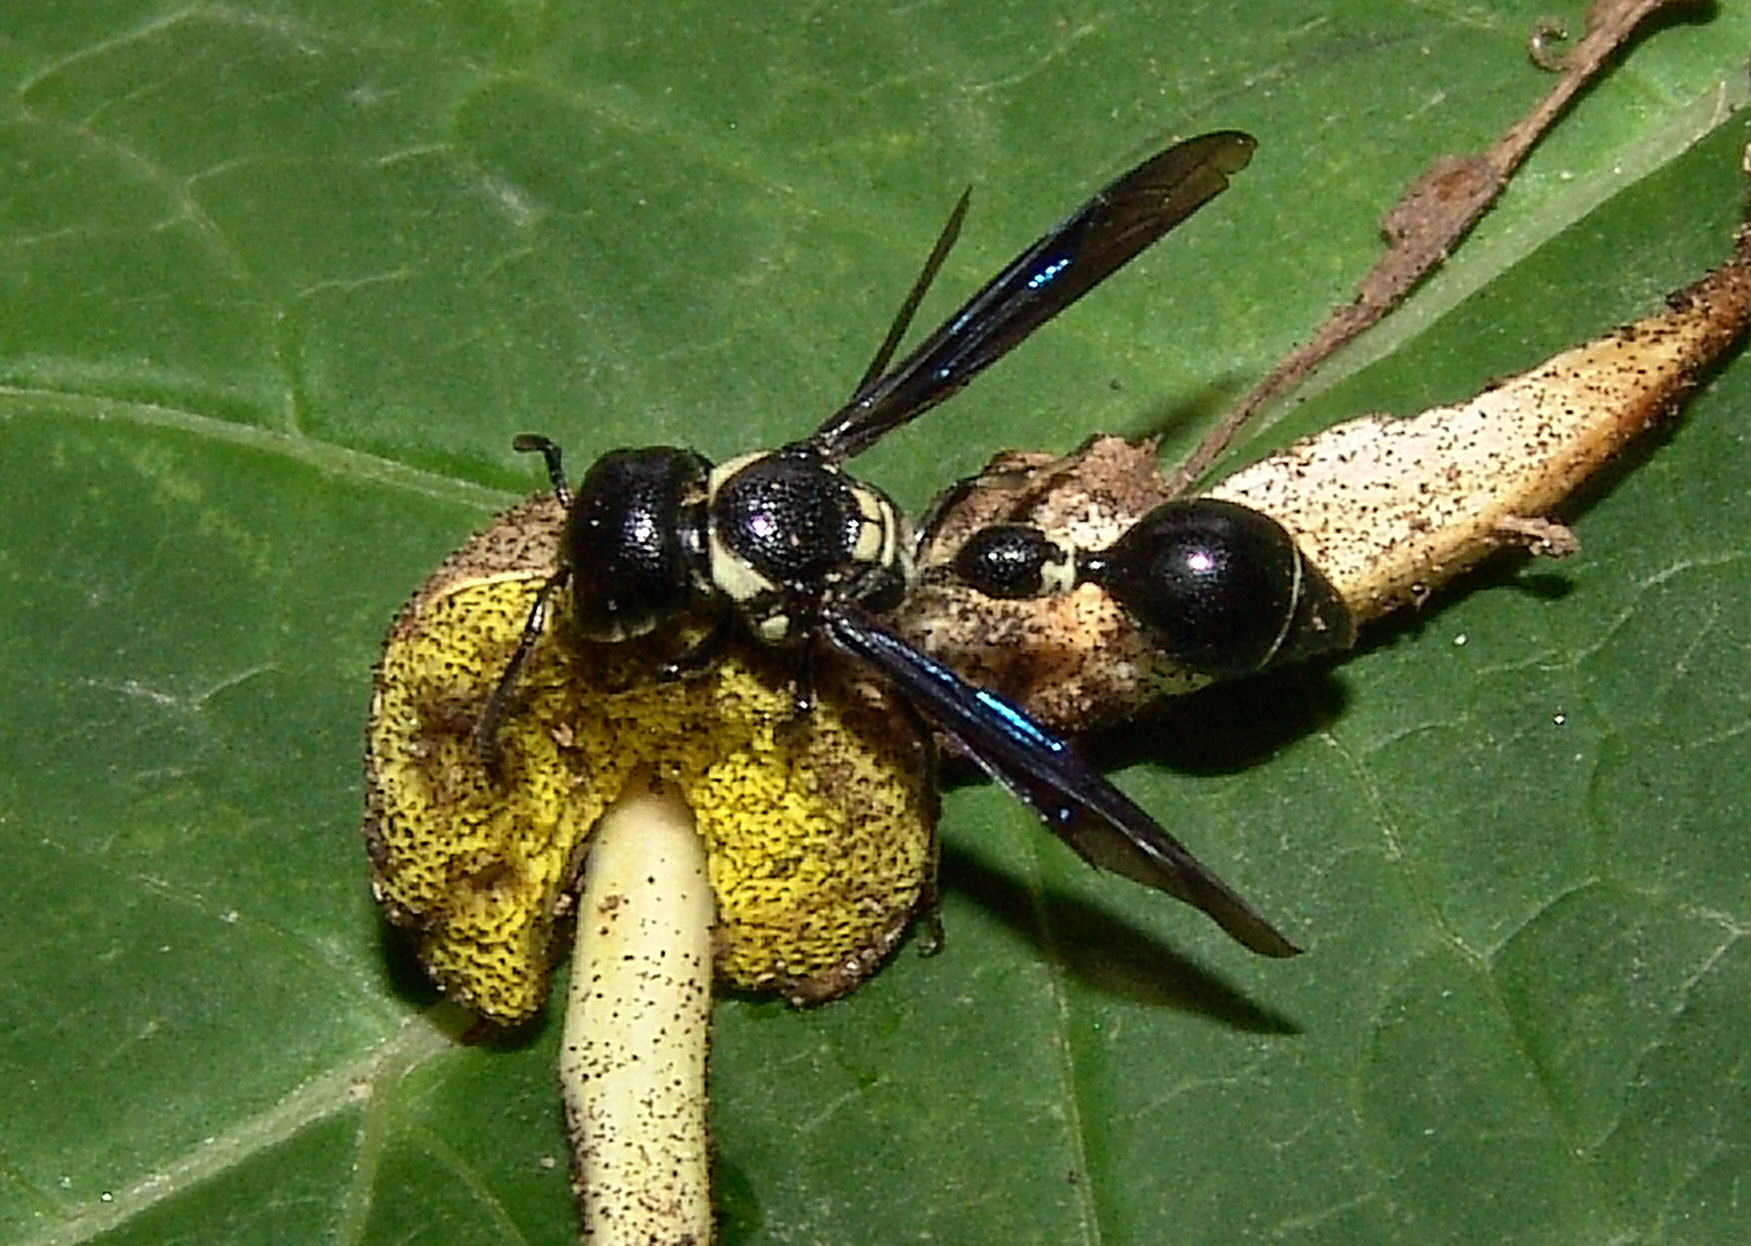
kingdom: Animalia
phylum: Arthropoda
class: Insecta
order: Hymenoptera
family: Eumenidae
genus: Zethus
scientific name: Zethus spinipes
